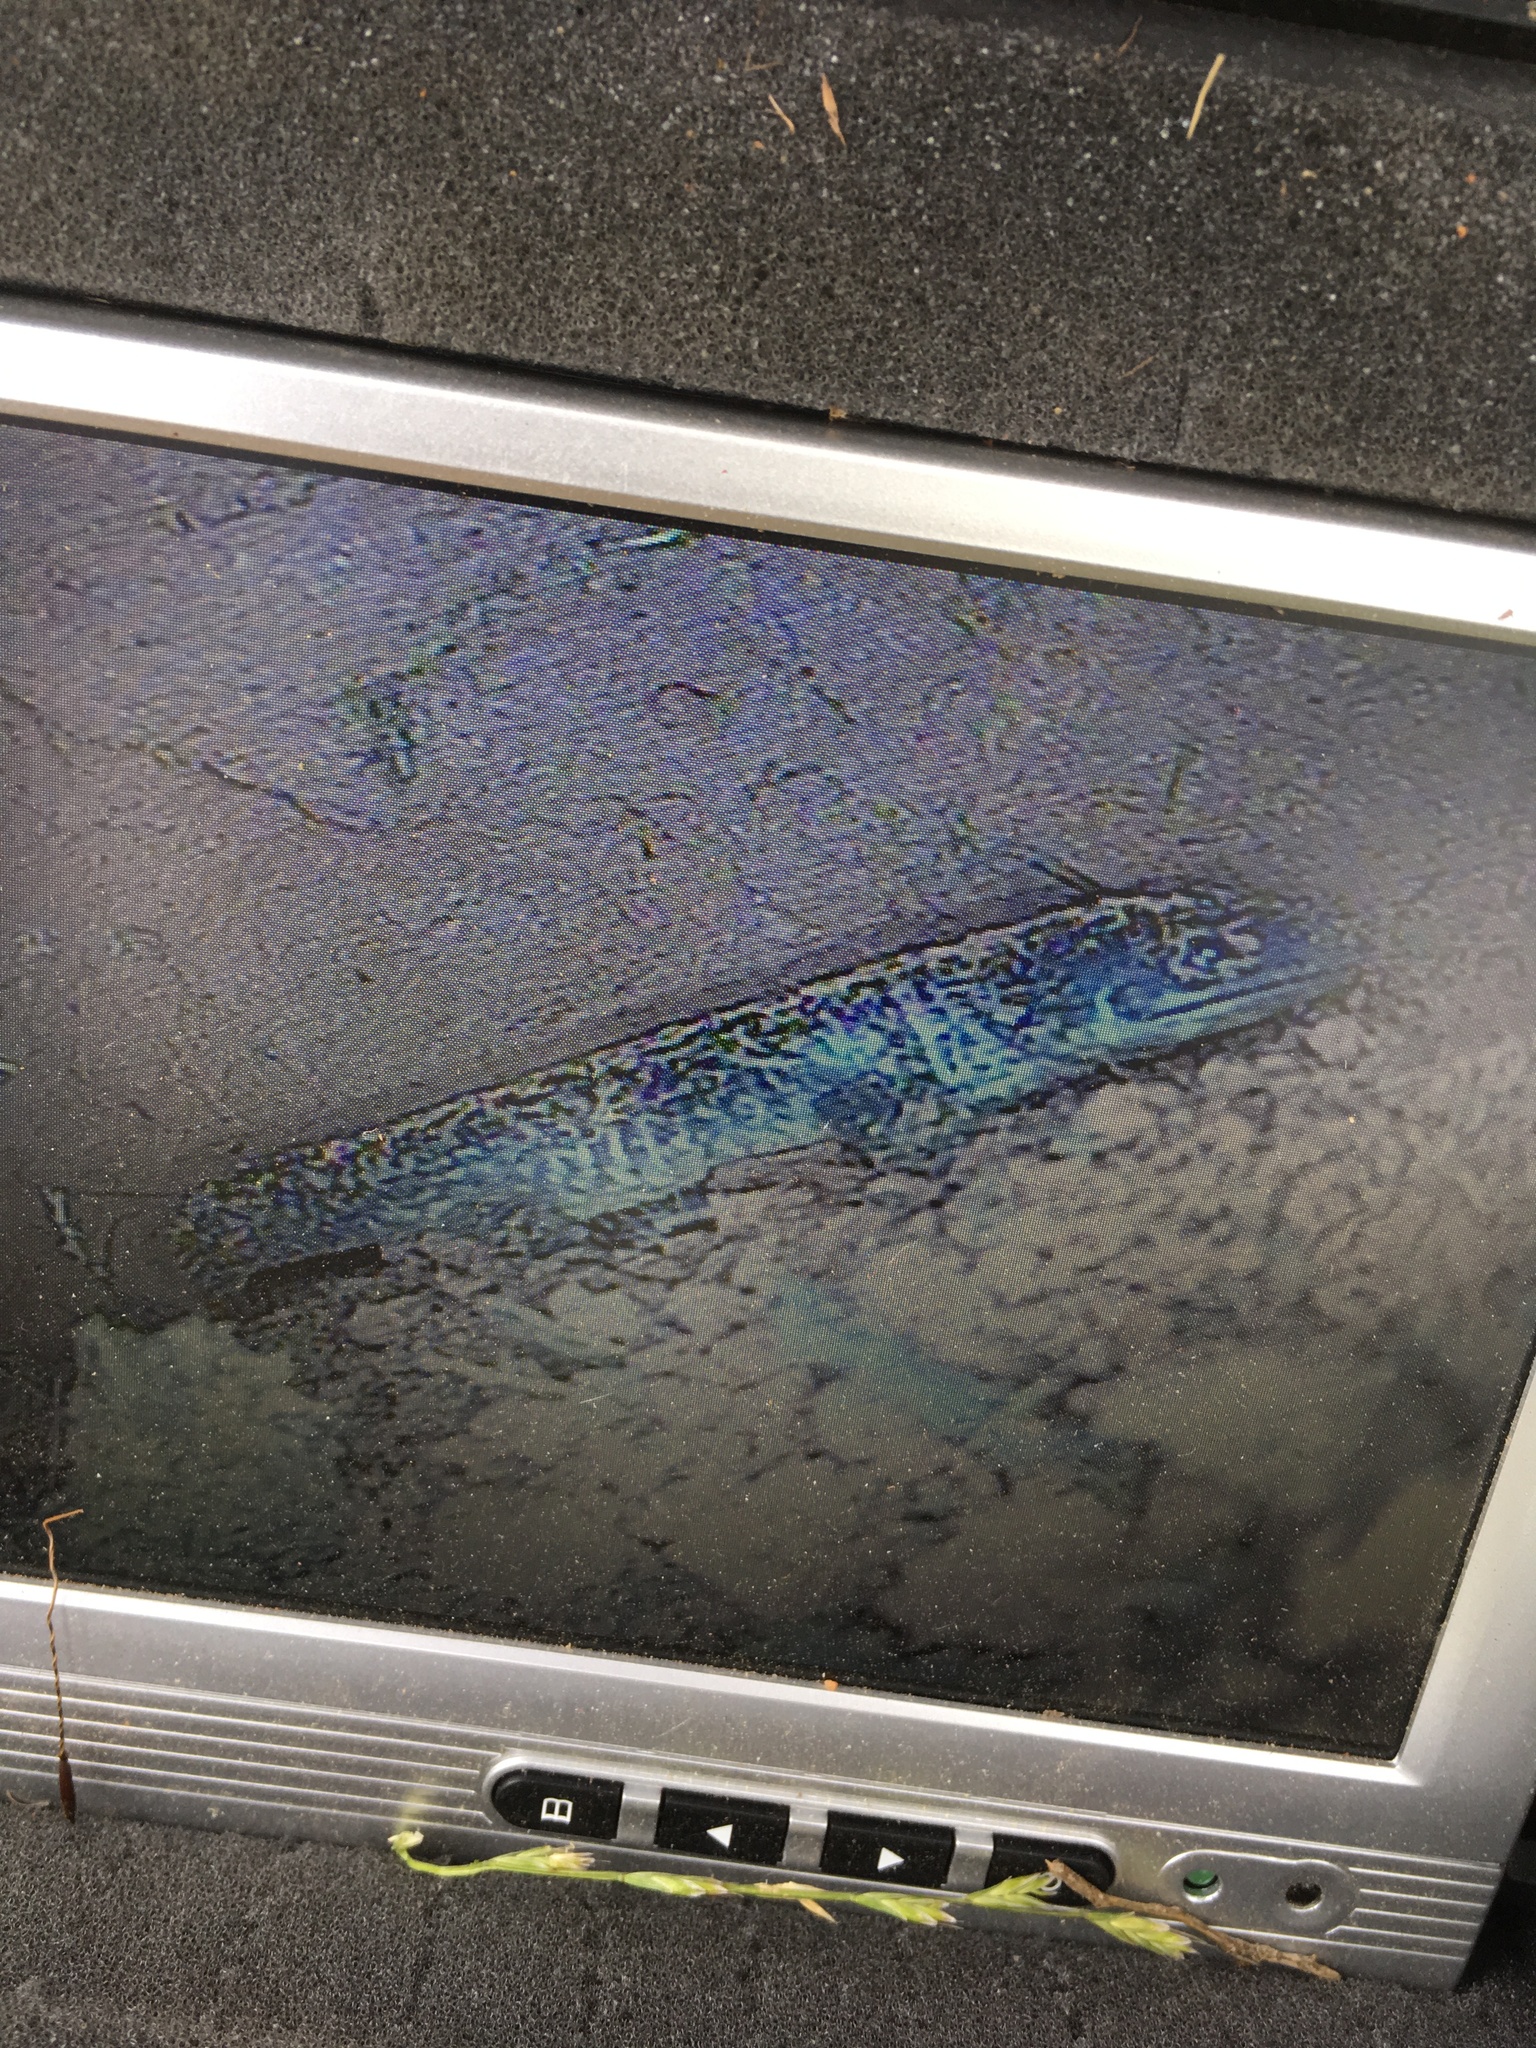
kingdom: Animalia
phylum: Chordata
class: Amphibia
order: Caudata
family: Ambystomatidae
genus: Ambystoma
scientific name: Ambystoma tigrinum
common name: Tiger salamander
